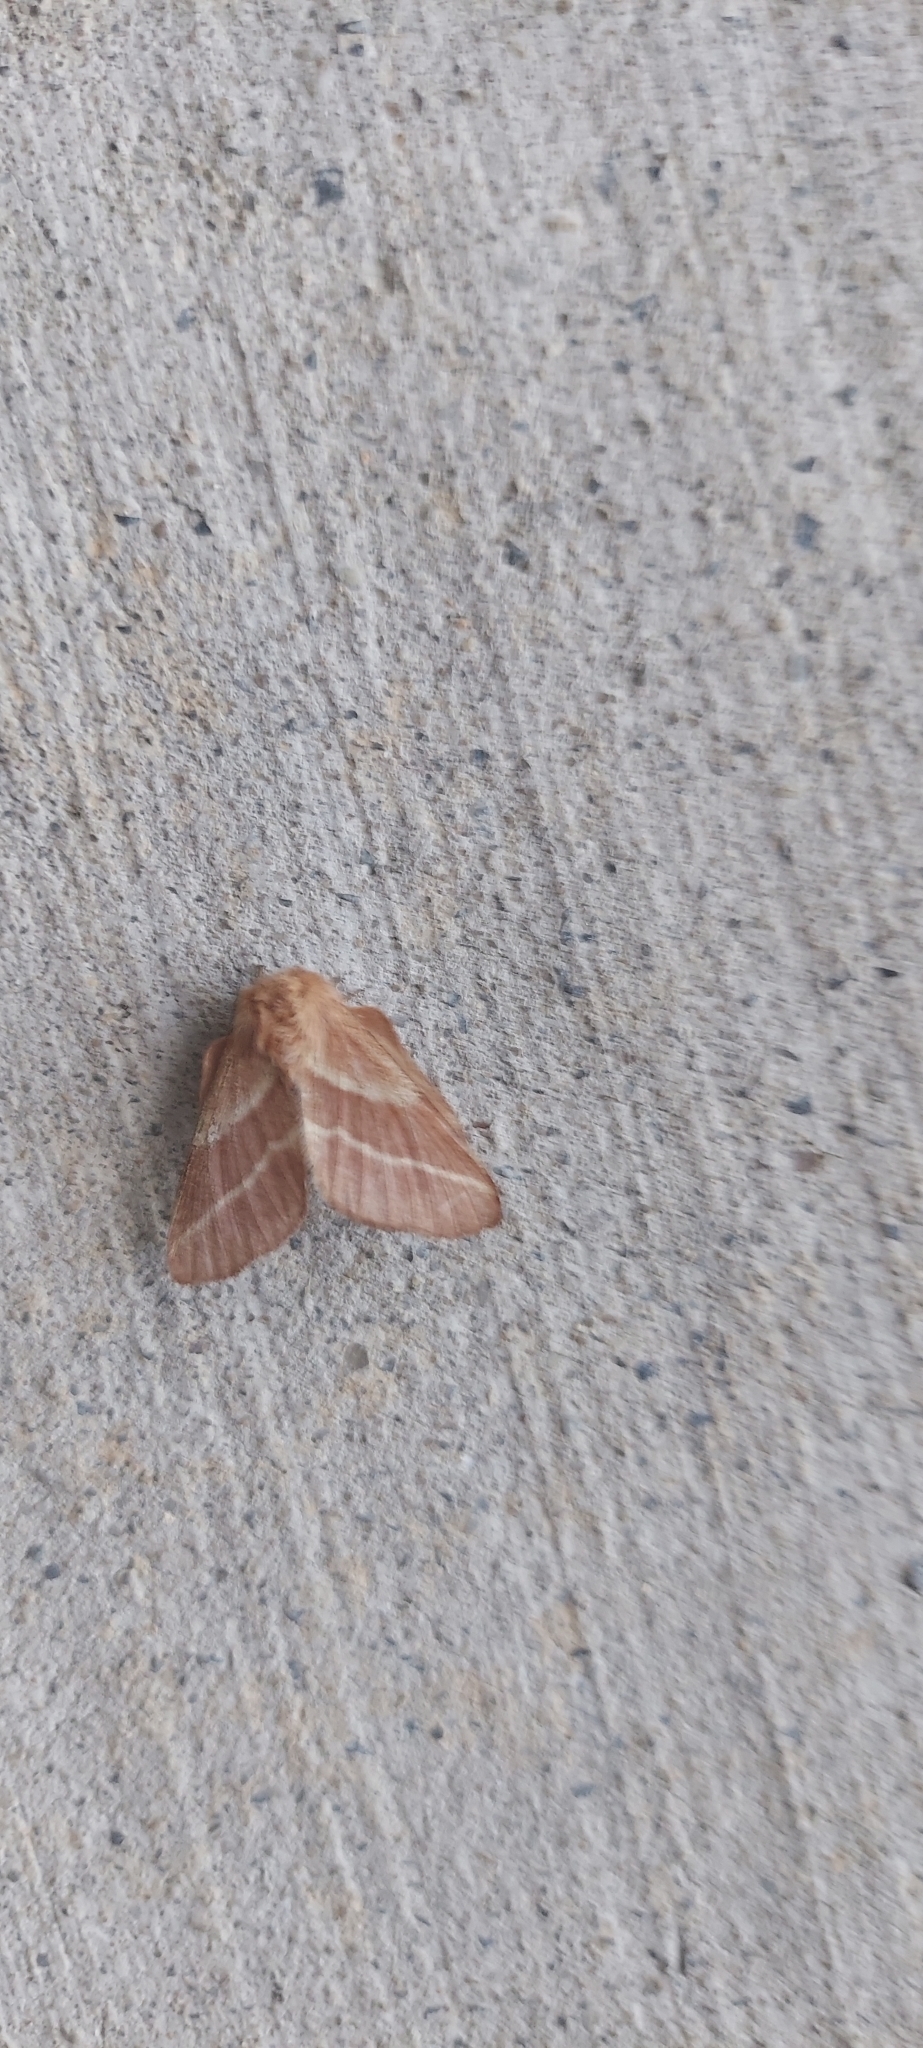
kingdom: Animalia
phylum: Arthropoda
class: Insecta
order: Lepidoptera
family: Lasiocampidae
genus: Malacosoma
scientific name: Malacosoma americana
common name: Eastern tent caterpillar moth
